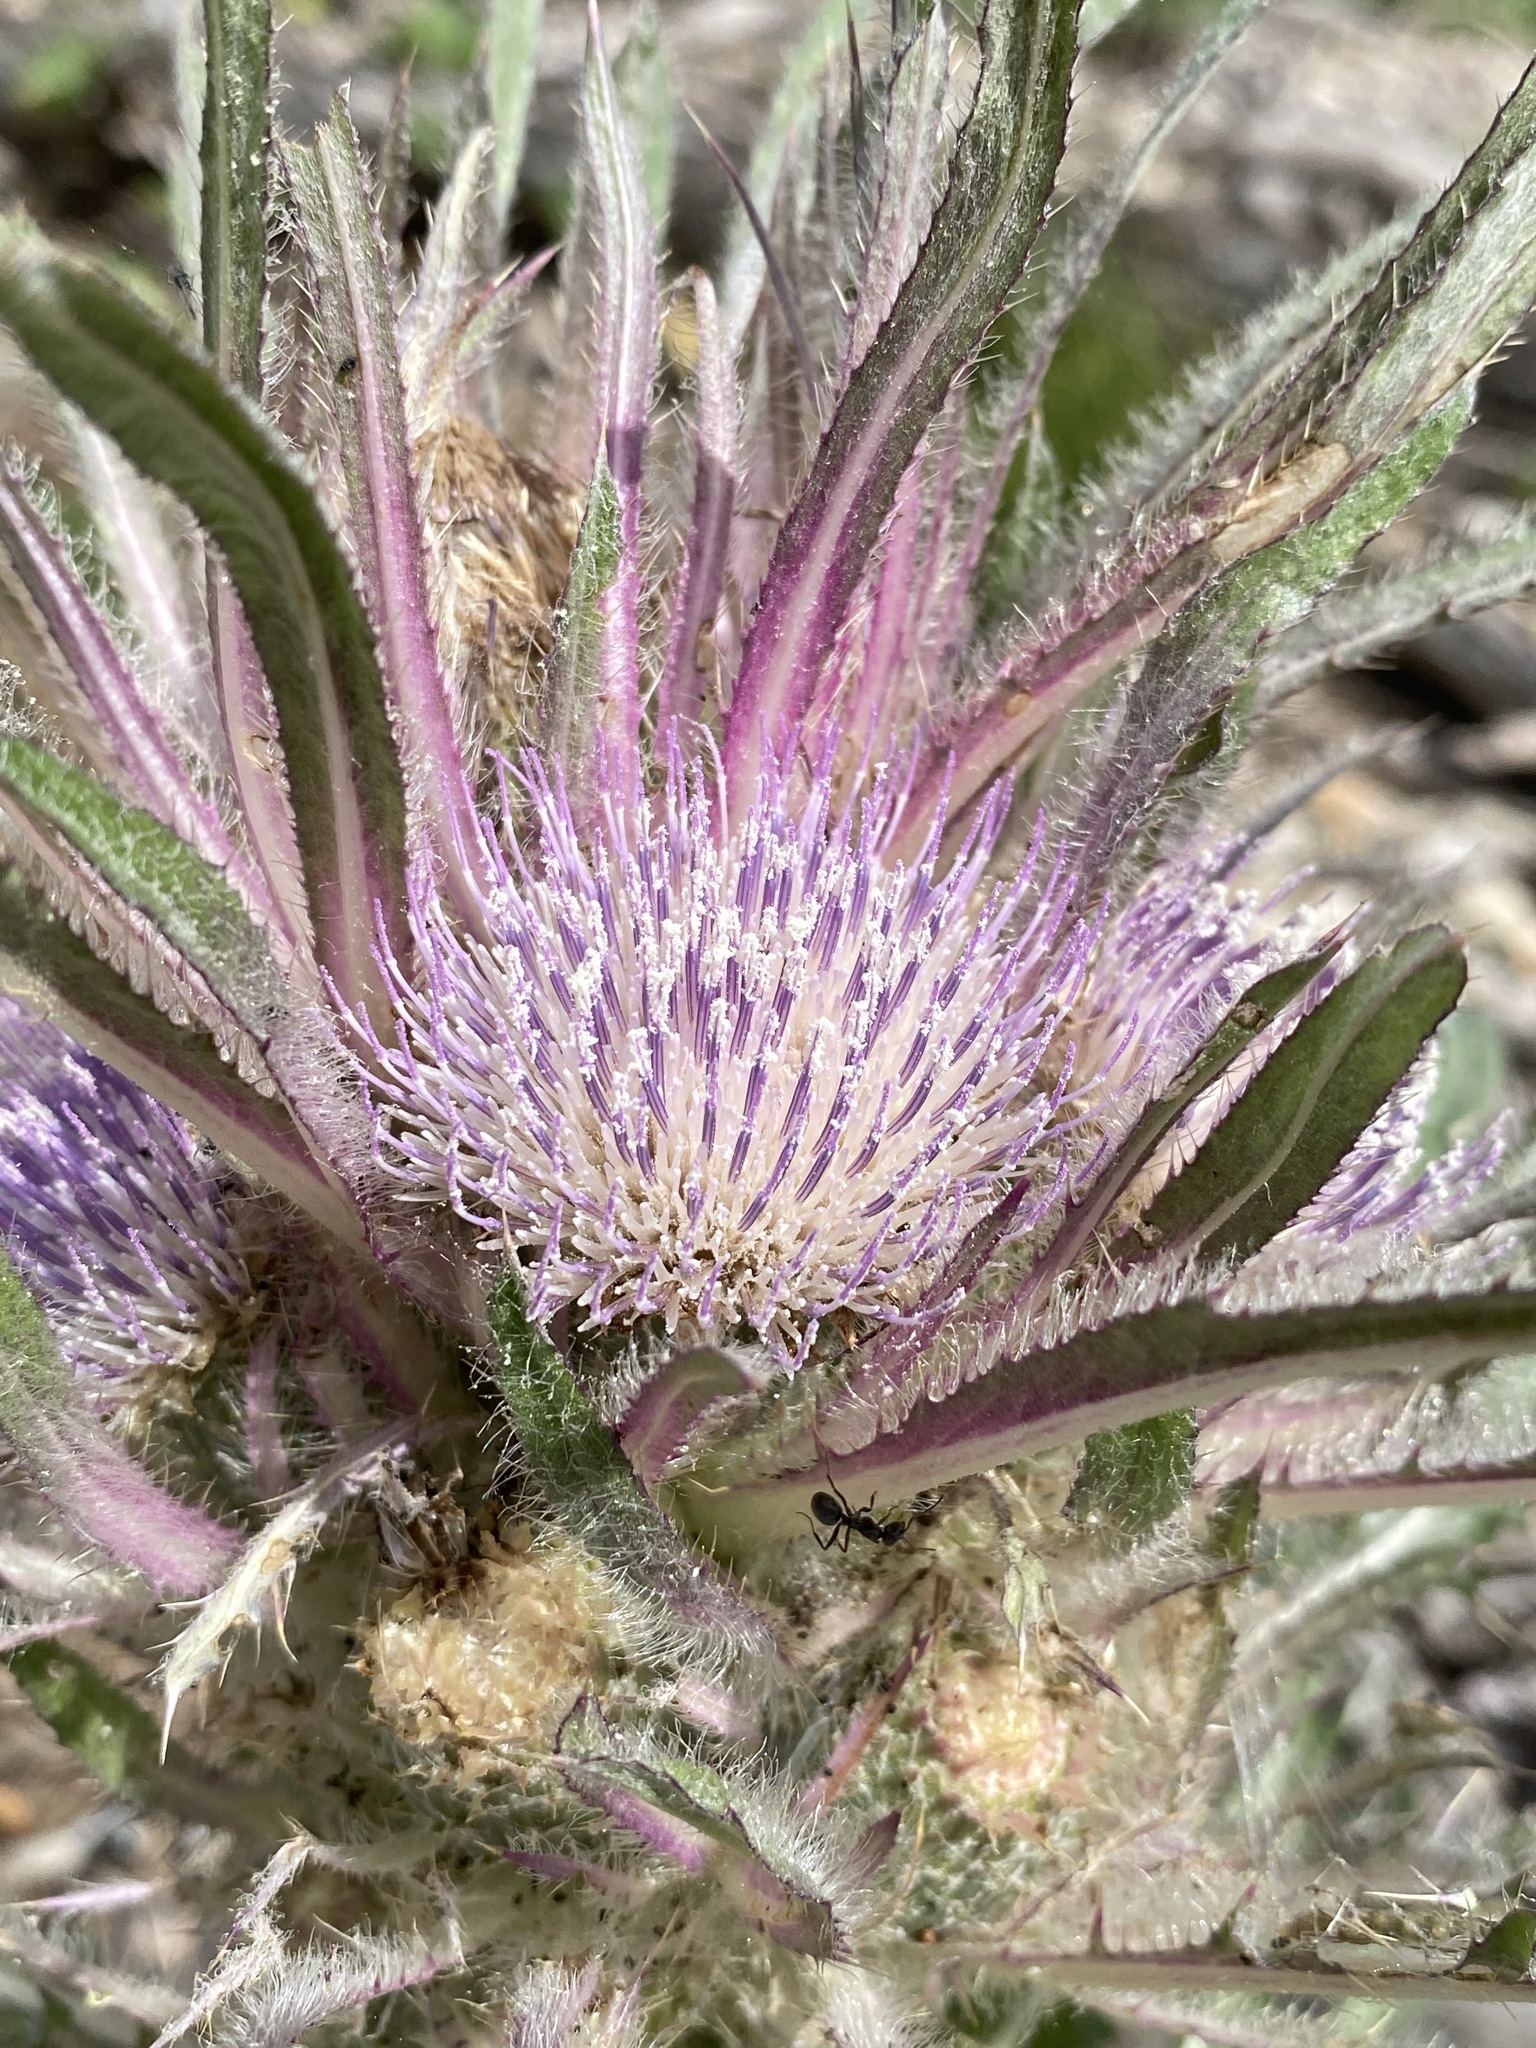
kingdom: Plantae
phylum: Tracheophyta
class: Magnoliopsida
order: Asterales
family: Asteraceae
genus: Cirsium
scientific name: Cirsium scariosum
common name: Meadow thistle
